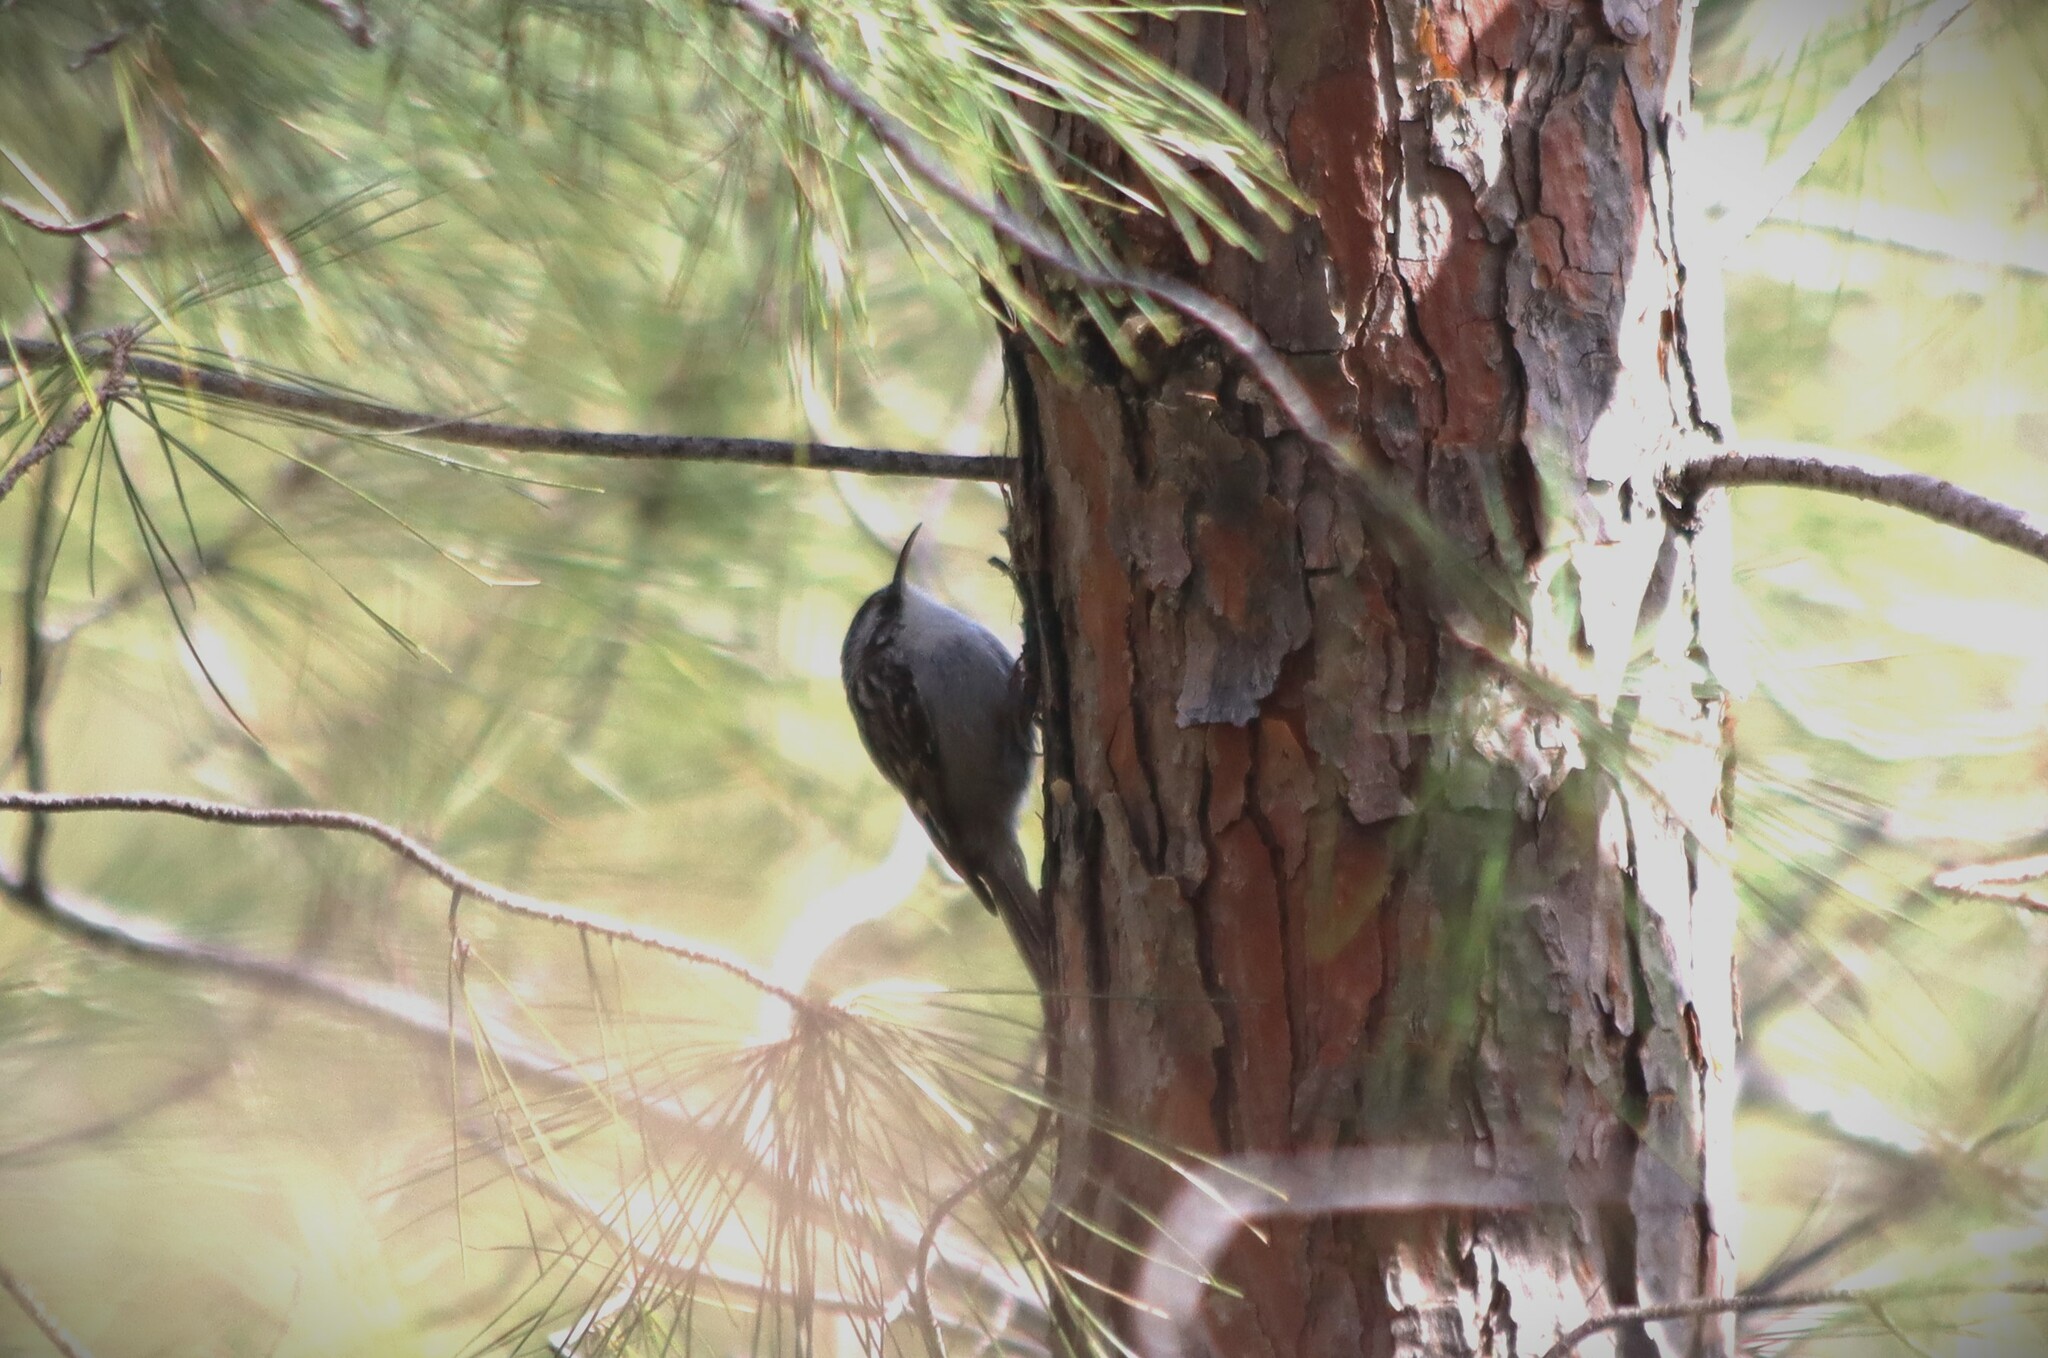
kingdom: Animalia
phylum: Chordata
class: Aves
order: Passeriformes
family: Certhiidae
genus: Certhia
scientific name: Certhia brachydactyla
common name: Short-toed treecreeper
